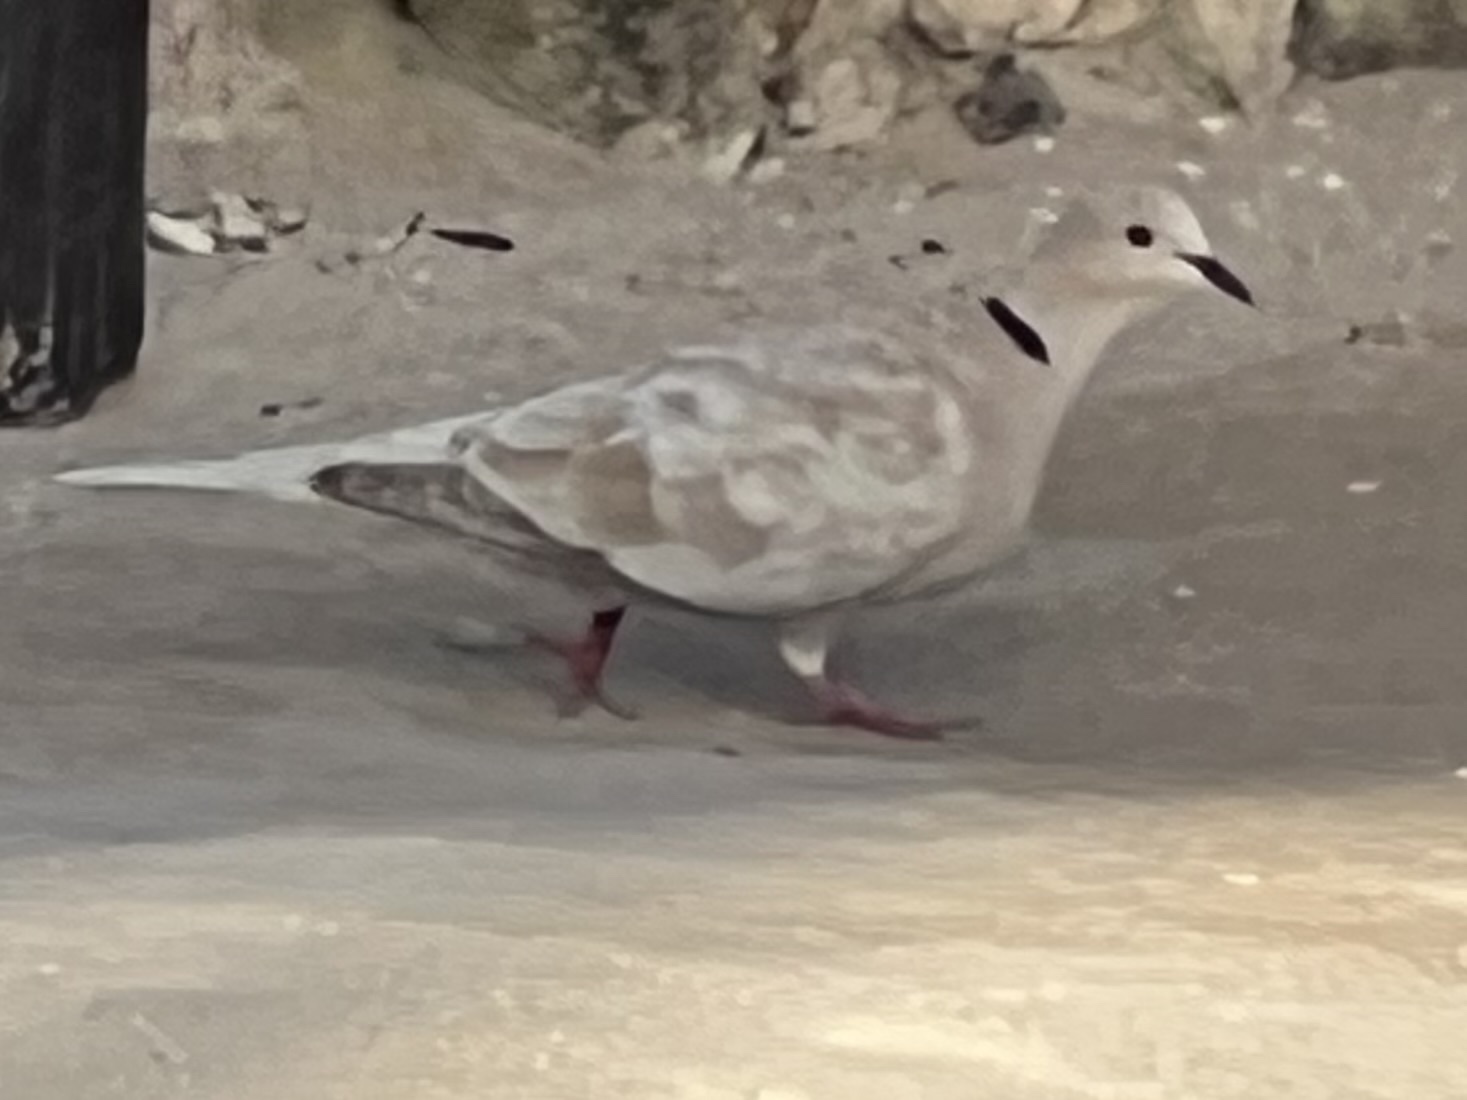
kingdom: Animalia
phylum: Chordata
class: Aves
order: Columbiformes
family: Columbidae
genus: Streptopelia
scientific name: Streptopelia decaocto
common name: Eurasian collared dove
